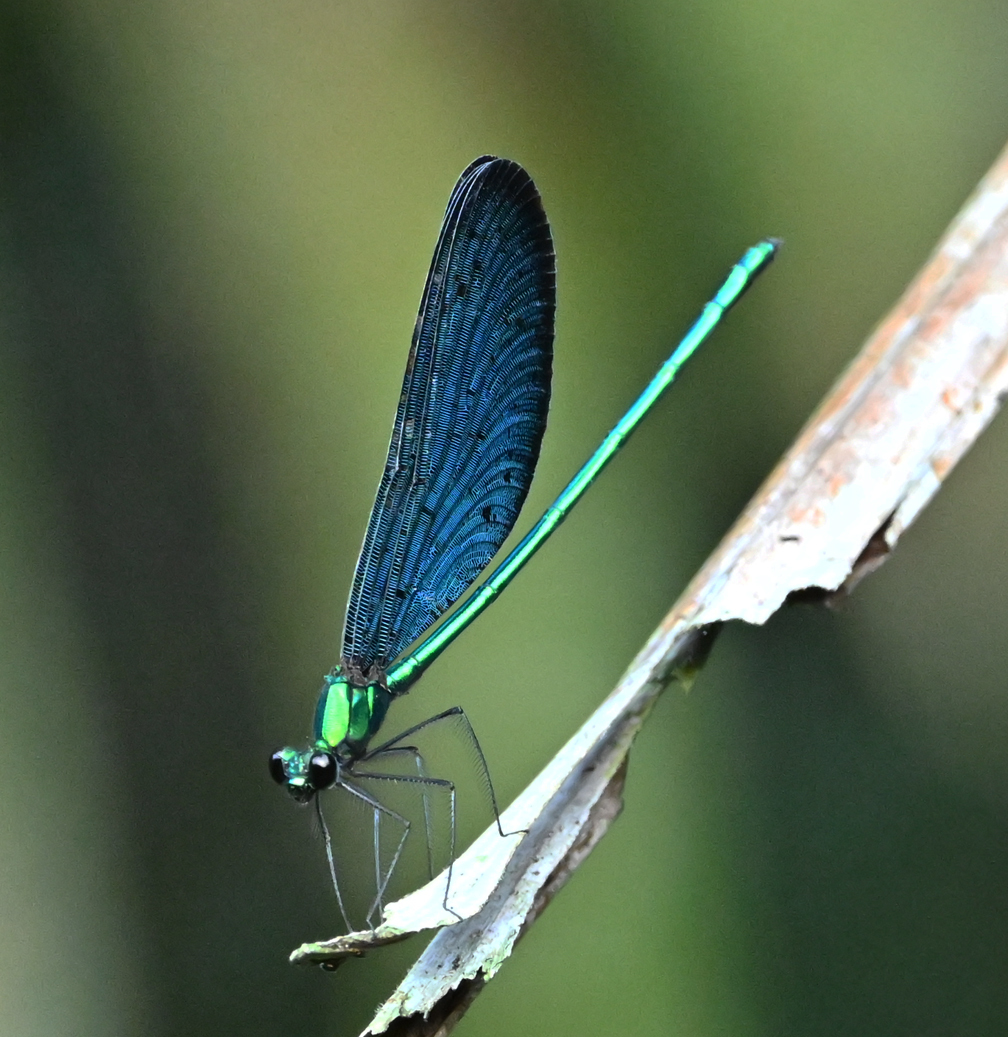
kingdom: Animalia
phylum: Arthropoda
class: Insecta
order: Odonata
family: Calopterygidae
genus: Matrona
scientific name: Matrona cyanoptera
